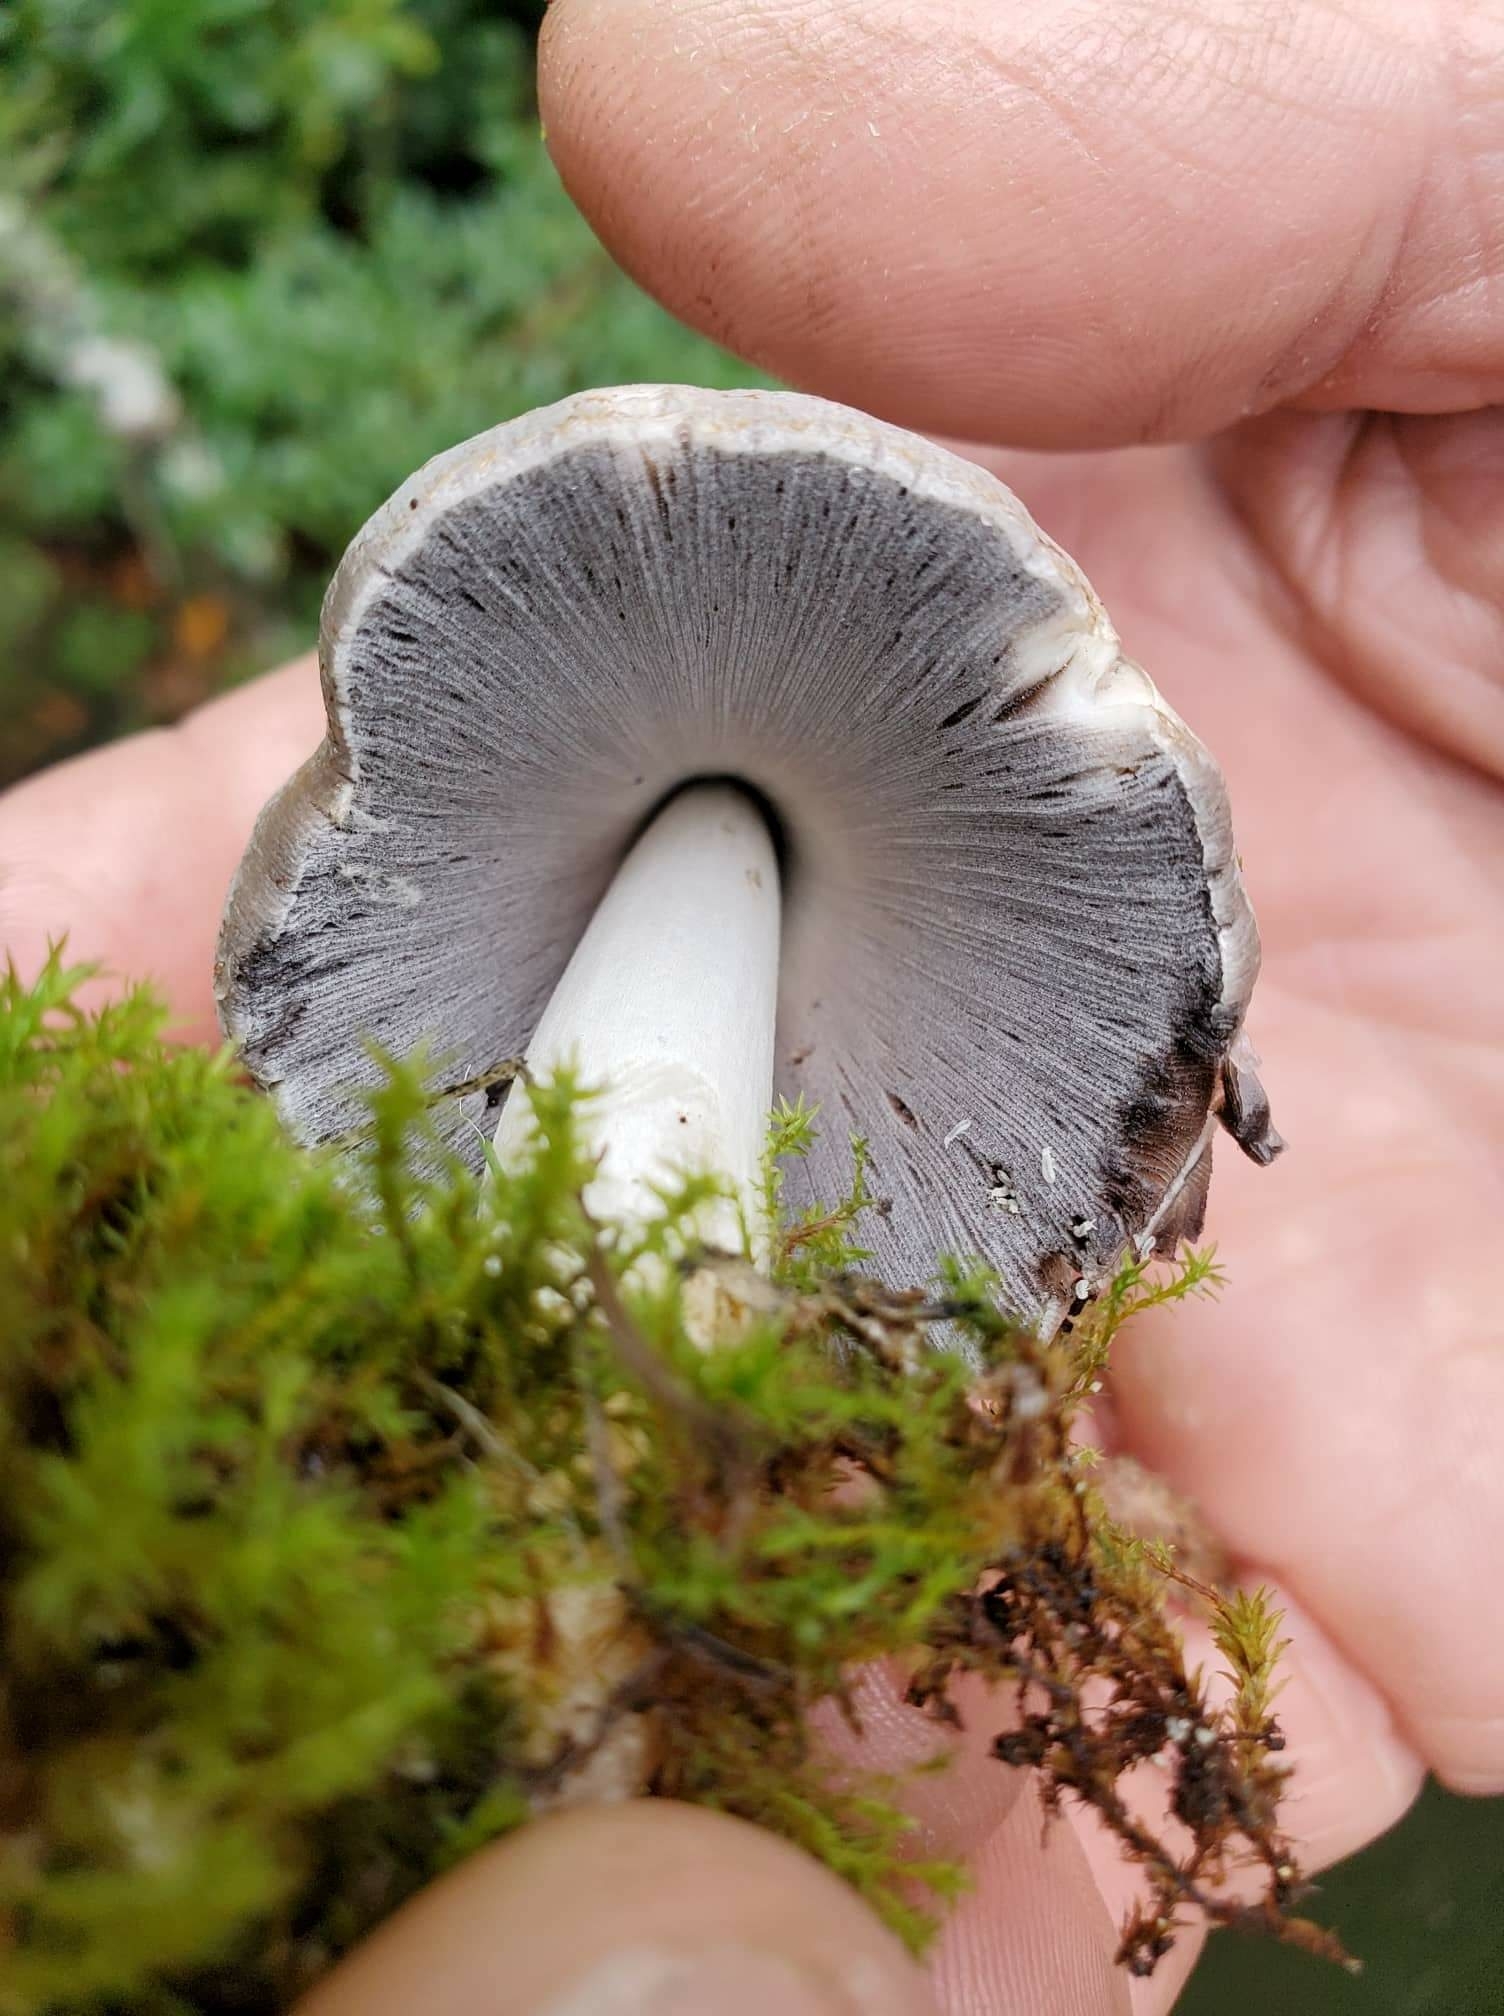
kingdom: Fungi
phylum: Basidiomycota
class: Agaricomycetes
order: Agaricales
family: Psathyrellaceae
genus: Coprinopsis
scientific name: Coprinopsis atramentaria
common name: Common ink-cap
